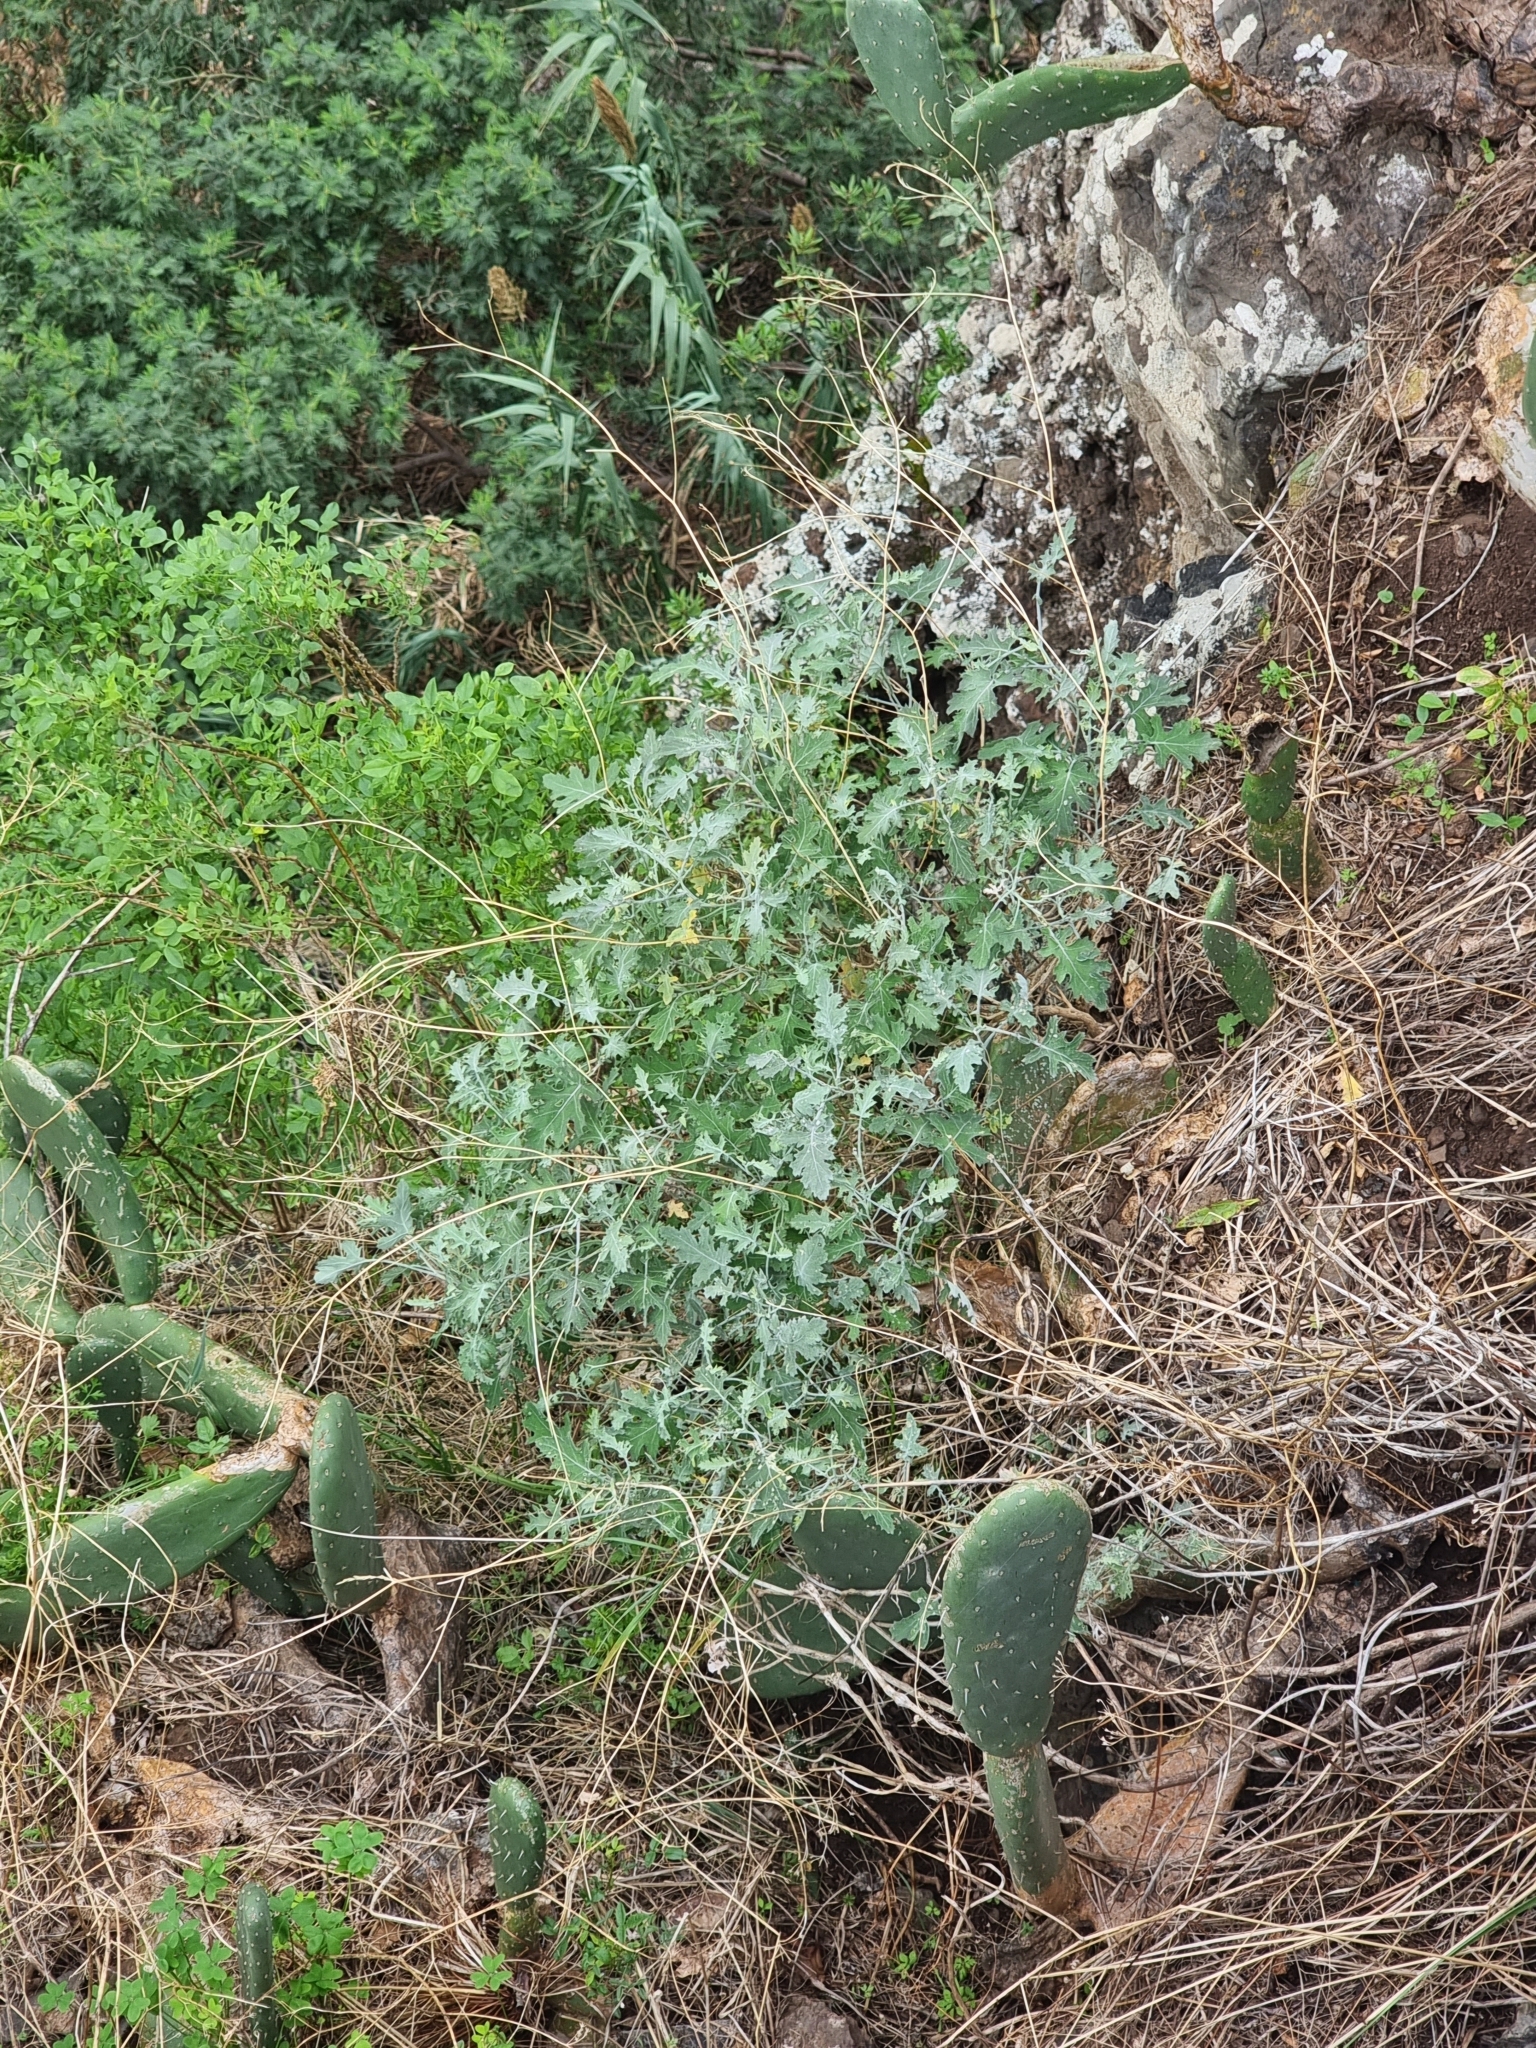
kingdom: Plantae
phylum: Tracheophyta
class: Magnoliopsida
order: Brassicales
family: Brassicaceae
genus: Crambe
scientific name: Crambe fruticosa
